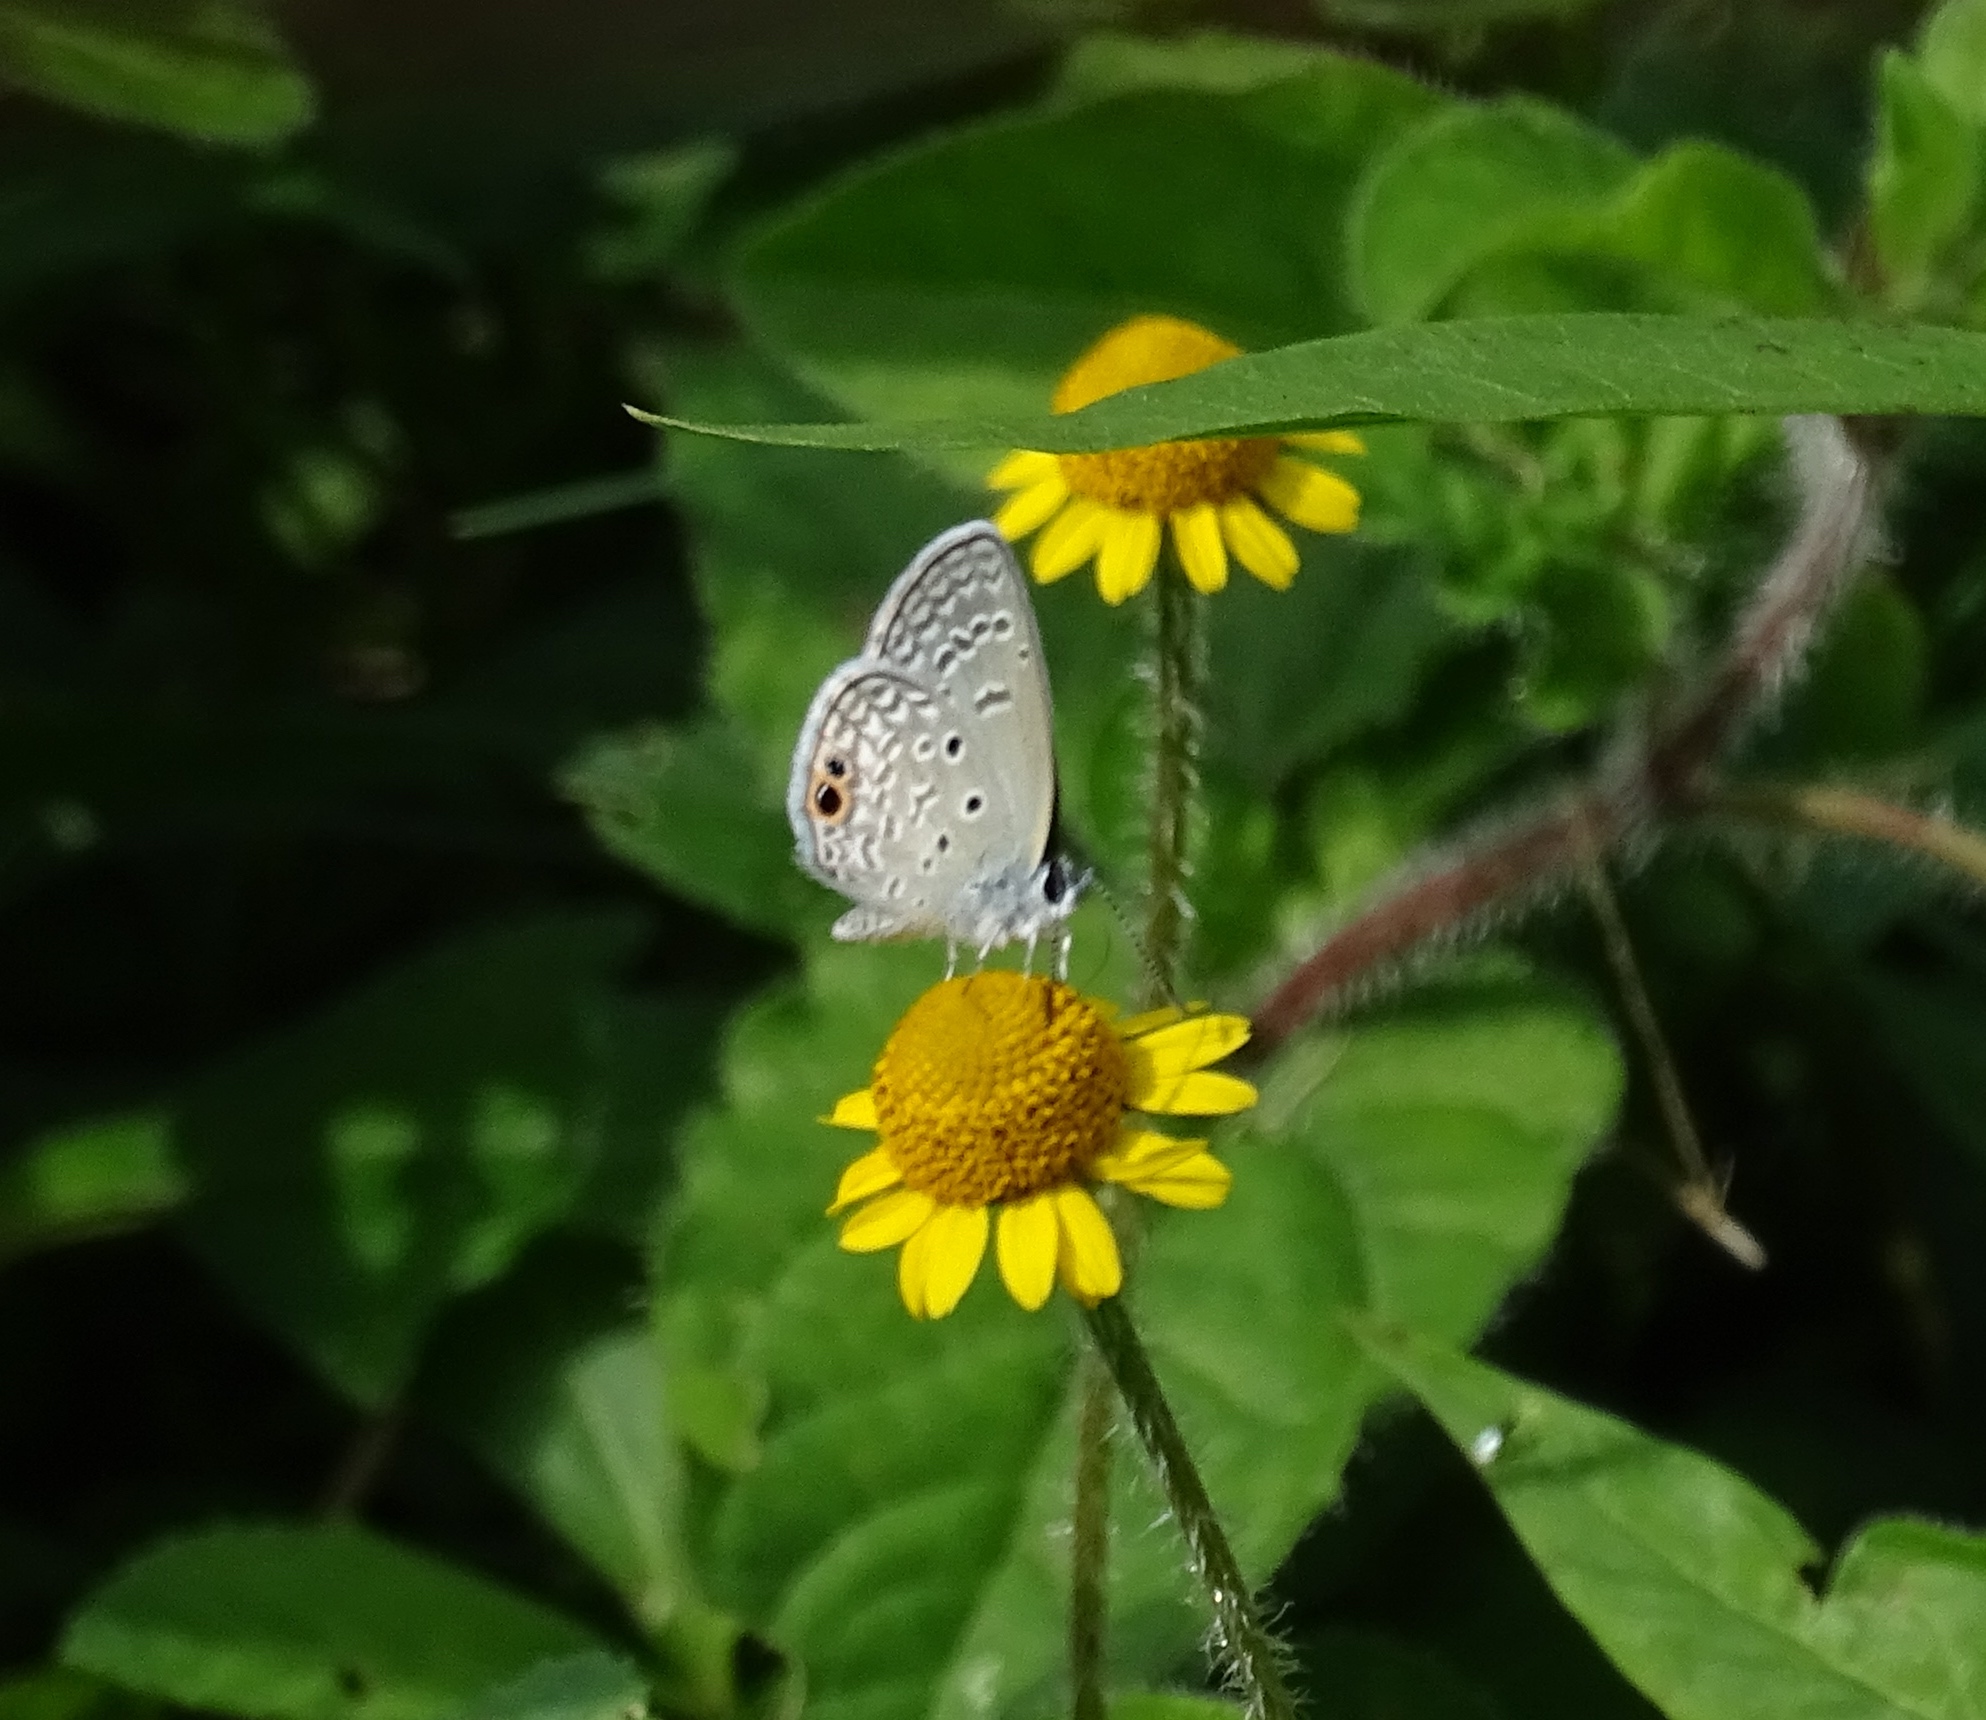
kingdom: Animalia
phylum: Arthropoda
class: Insecta
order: Lepidoptera
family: Lycaenidae
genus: Hemiargus
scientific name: Hemiargus ceraunus
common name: Ceraunus blue
